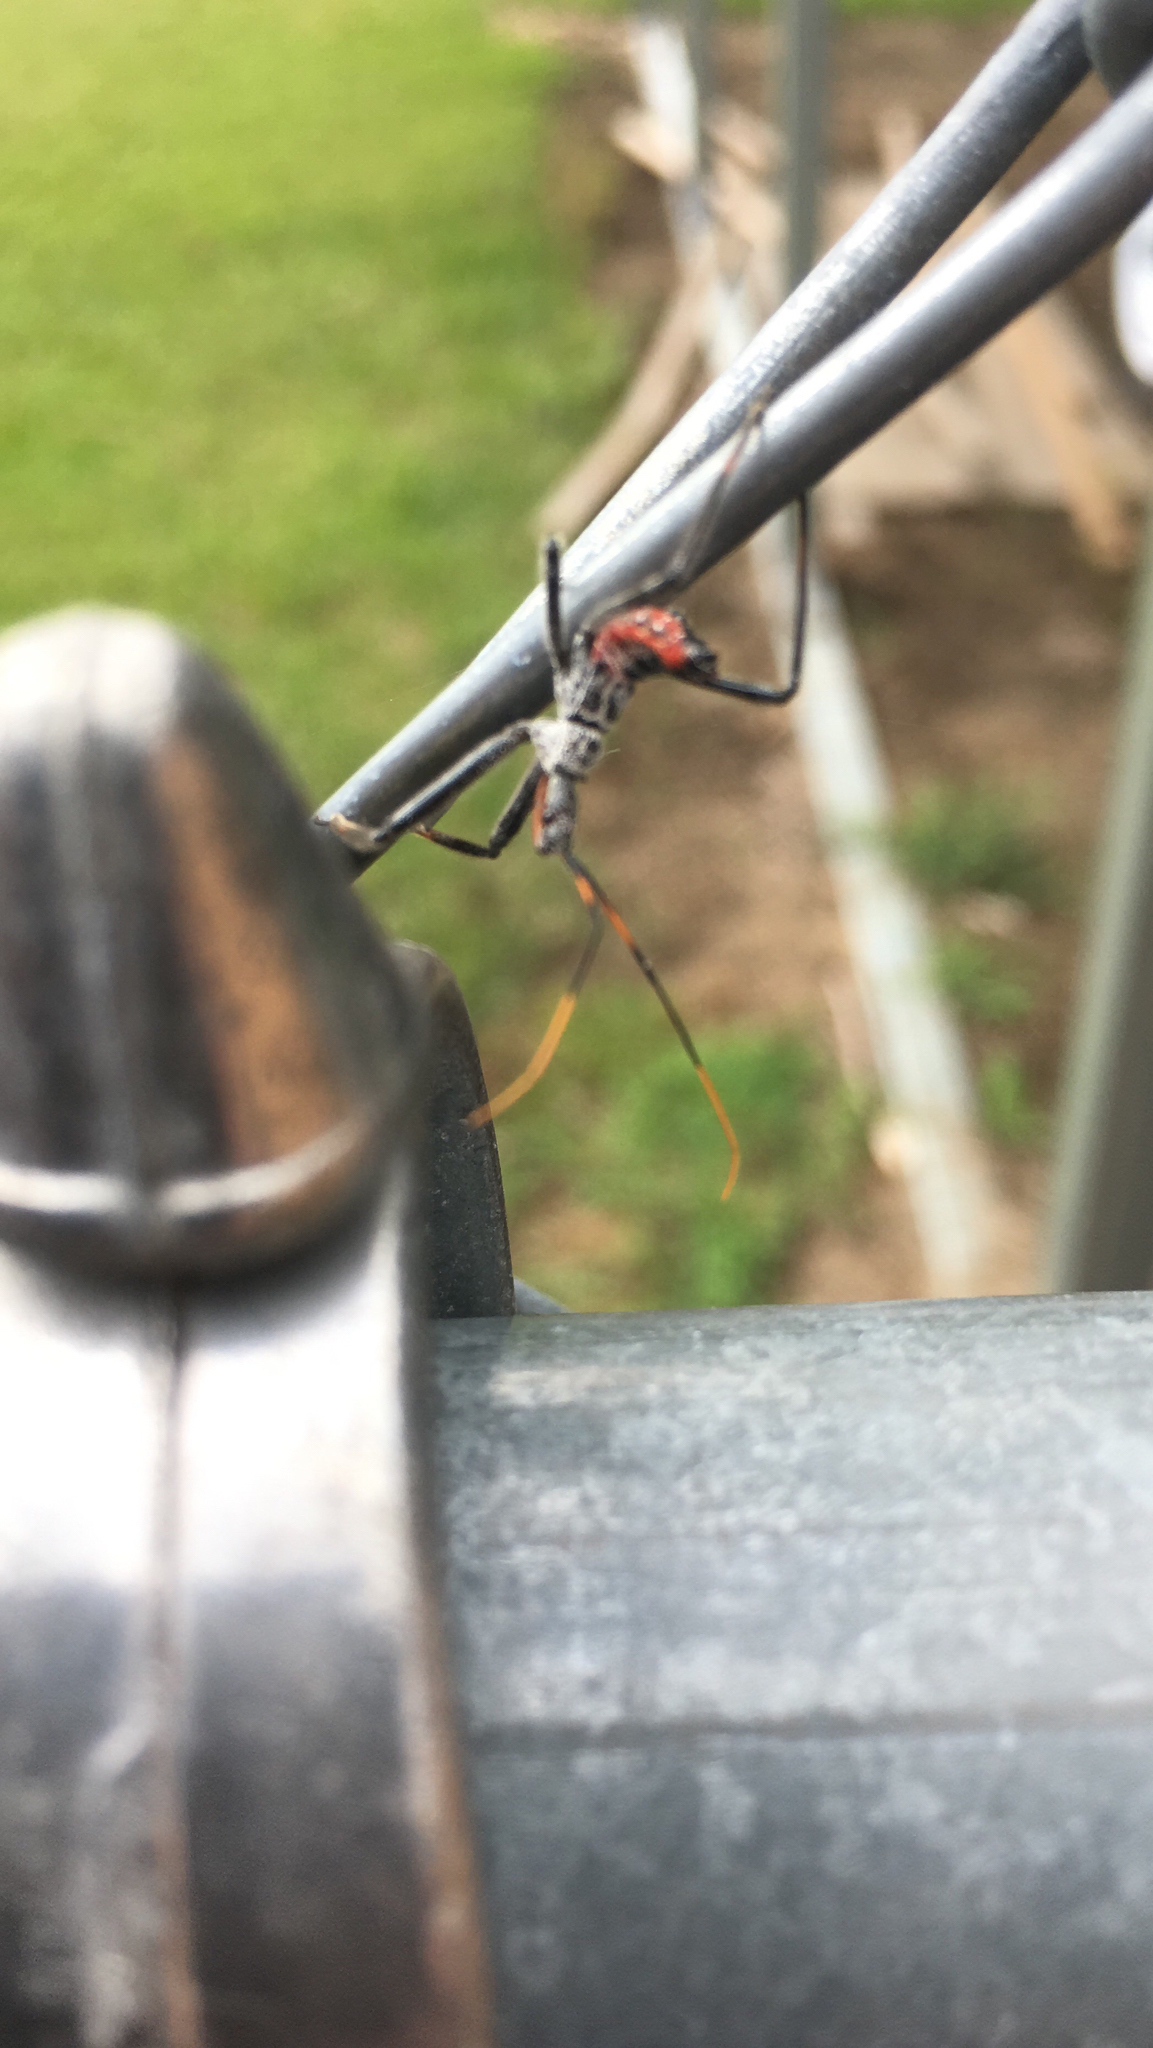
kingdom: Animalia
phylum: Arthropoda
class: Insecta
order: Hemiptera
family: Reduviidae
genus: Arilus
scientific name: Arilus cristatus
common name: North american wheel bug
